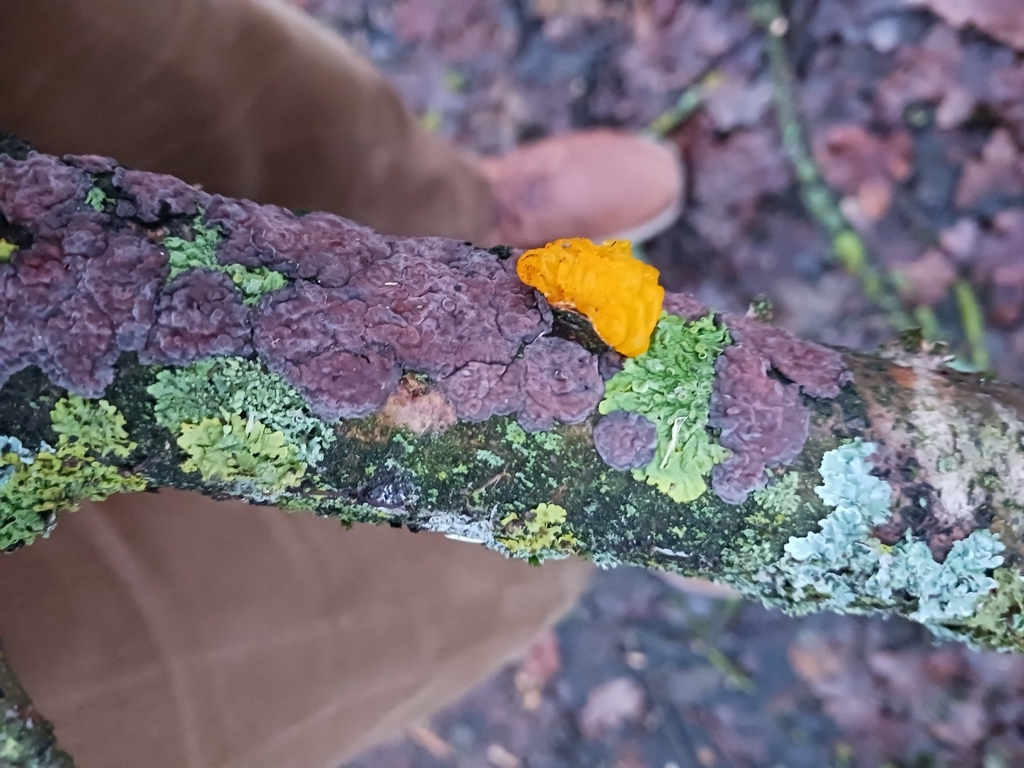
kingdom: Fungi
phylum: Basidiomycota
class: Tremellomycetes
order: Tremellales
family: Tremellaceae
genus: Tremella
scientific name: Tremella mesenterica
